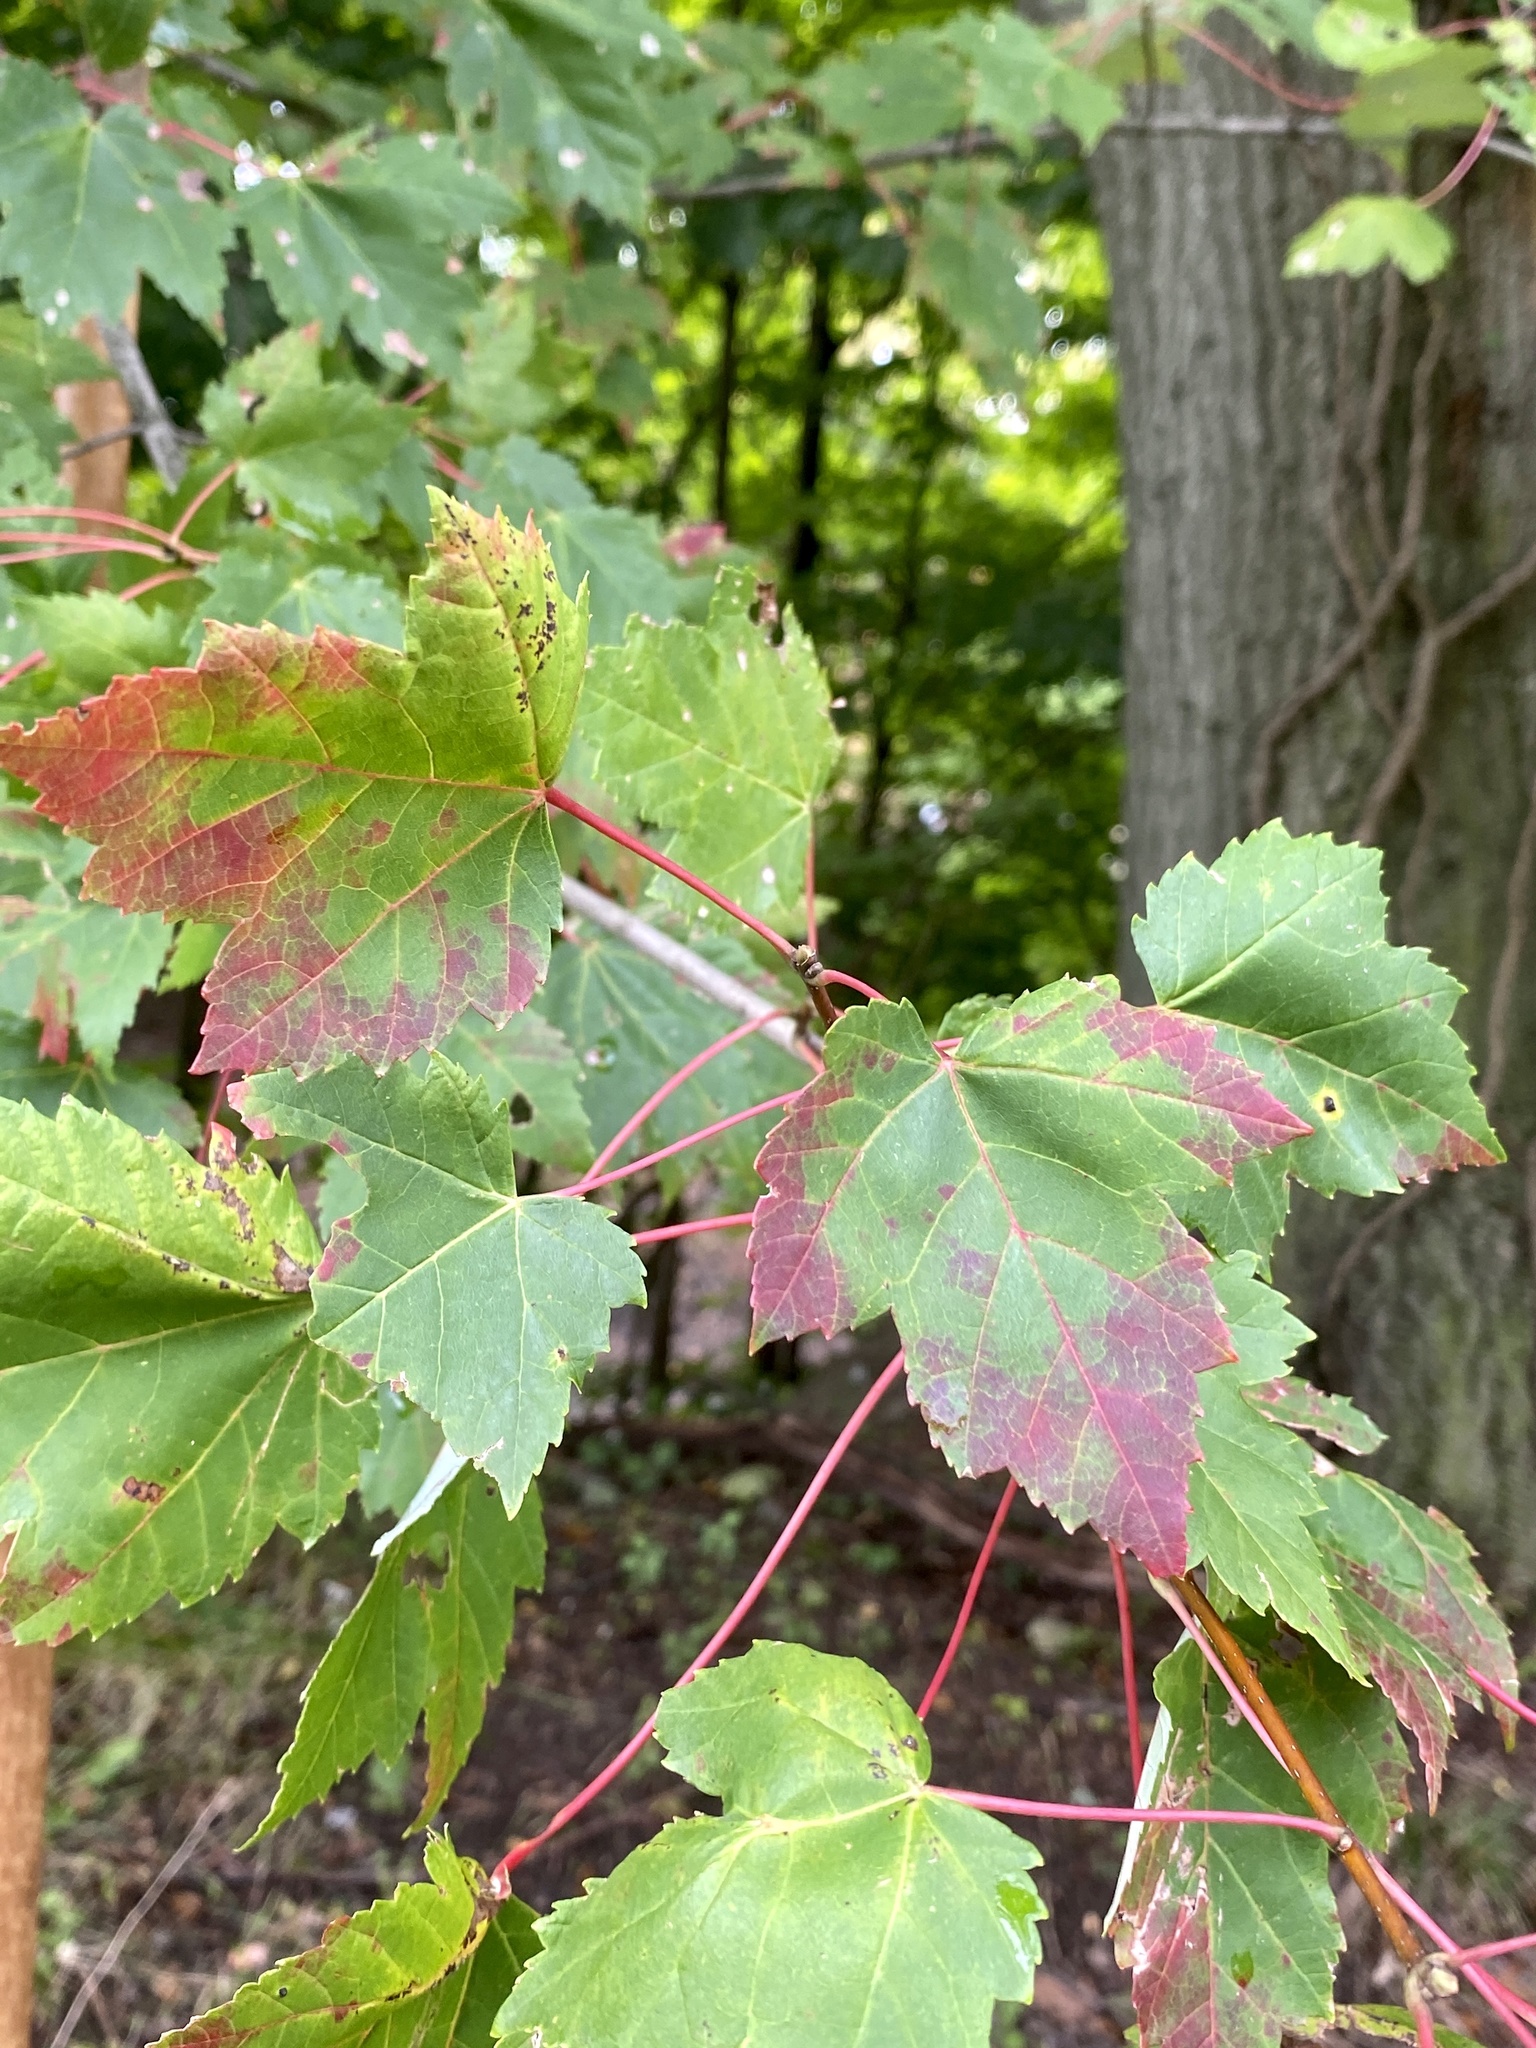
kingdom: Plantae
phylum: Tracheophyta
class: Magnoliopsida
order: Sapindales
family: Sapindaceae
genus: Acer
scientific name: Acer rubrum
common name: Red maple
